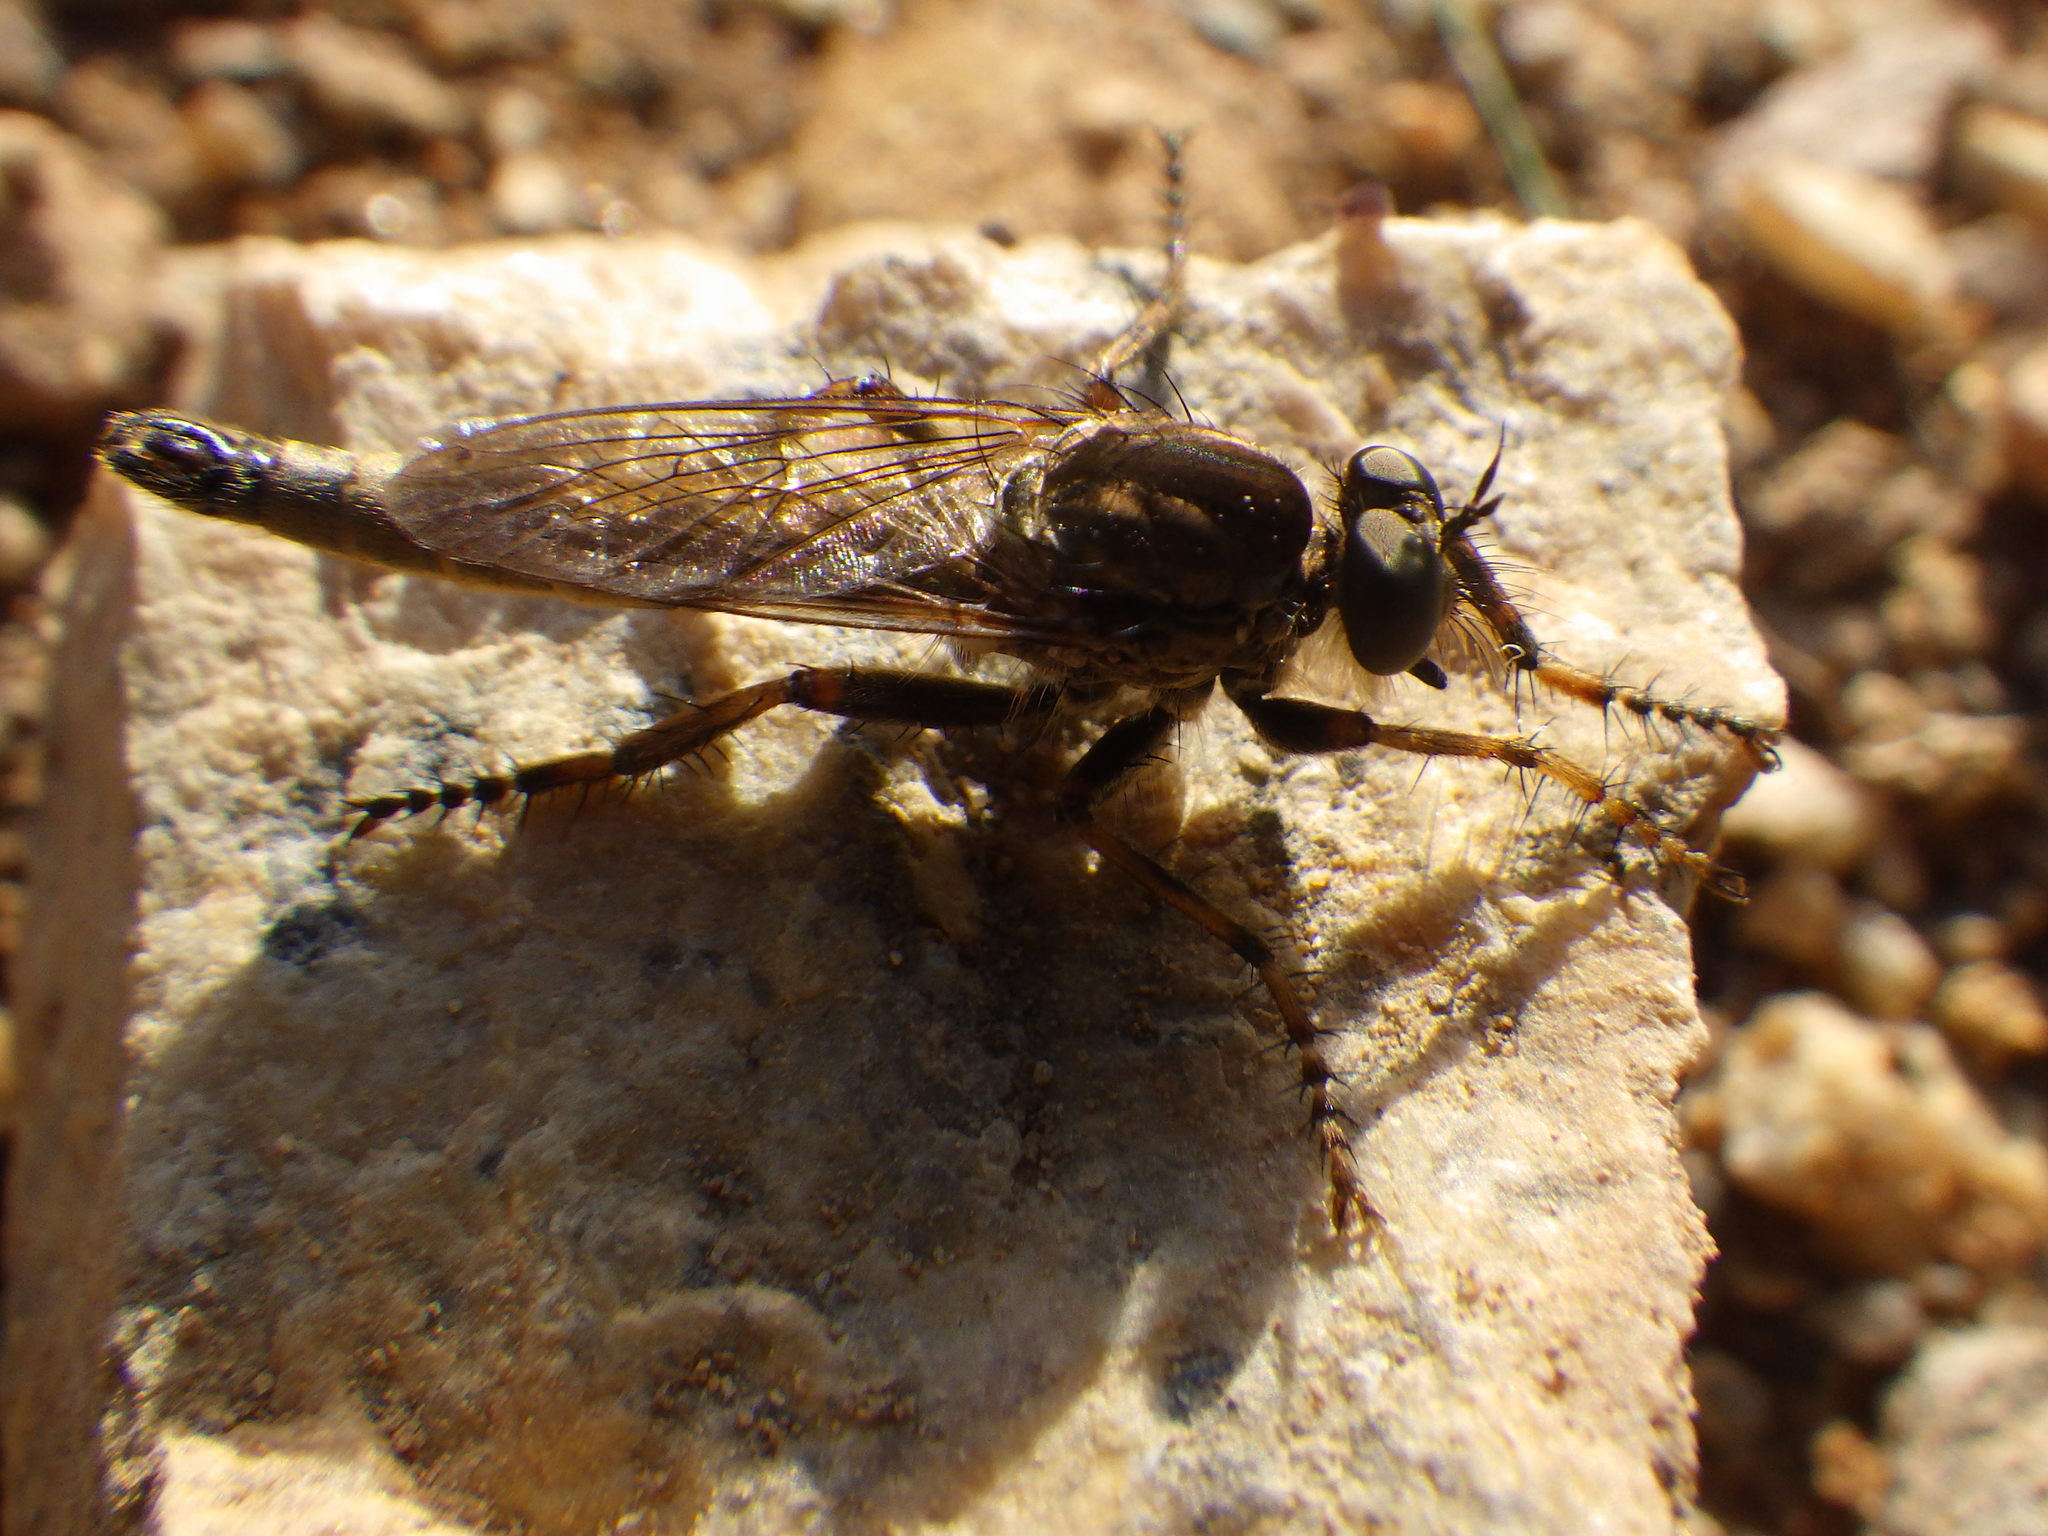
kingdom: Animalia
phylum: Arthropoda
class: Insecta
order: Diptera
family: Asilidae
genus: Machimus
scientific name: Machimus snowii
